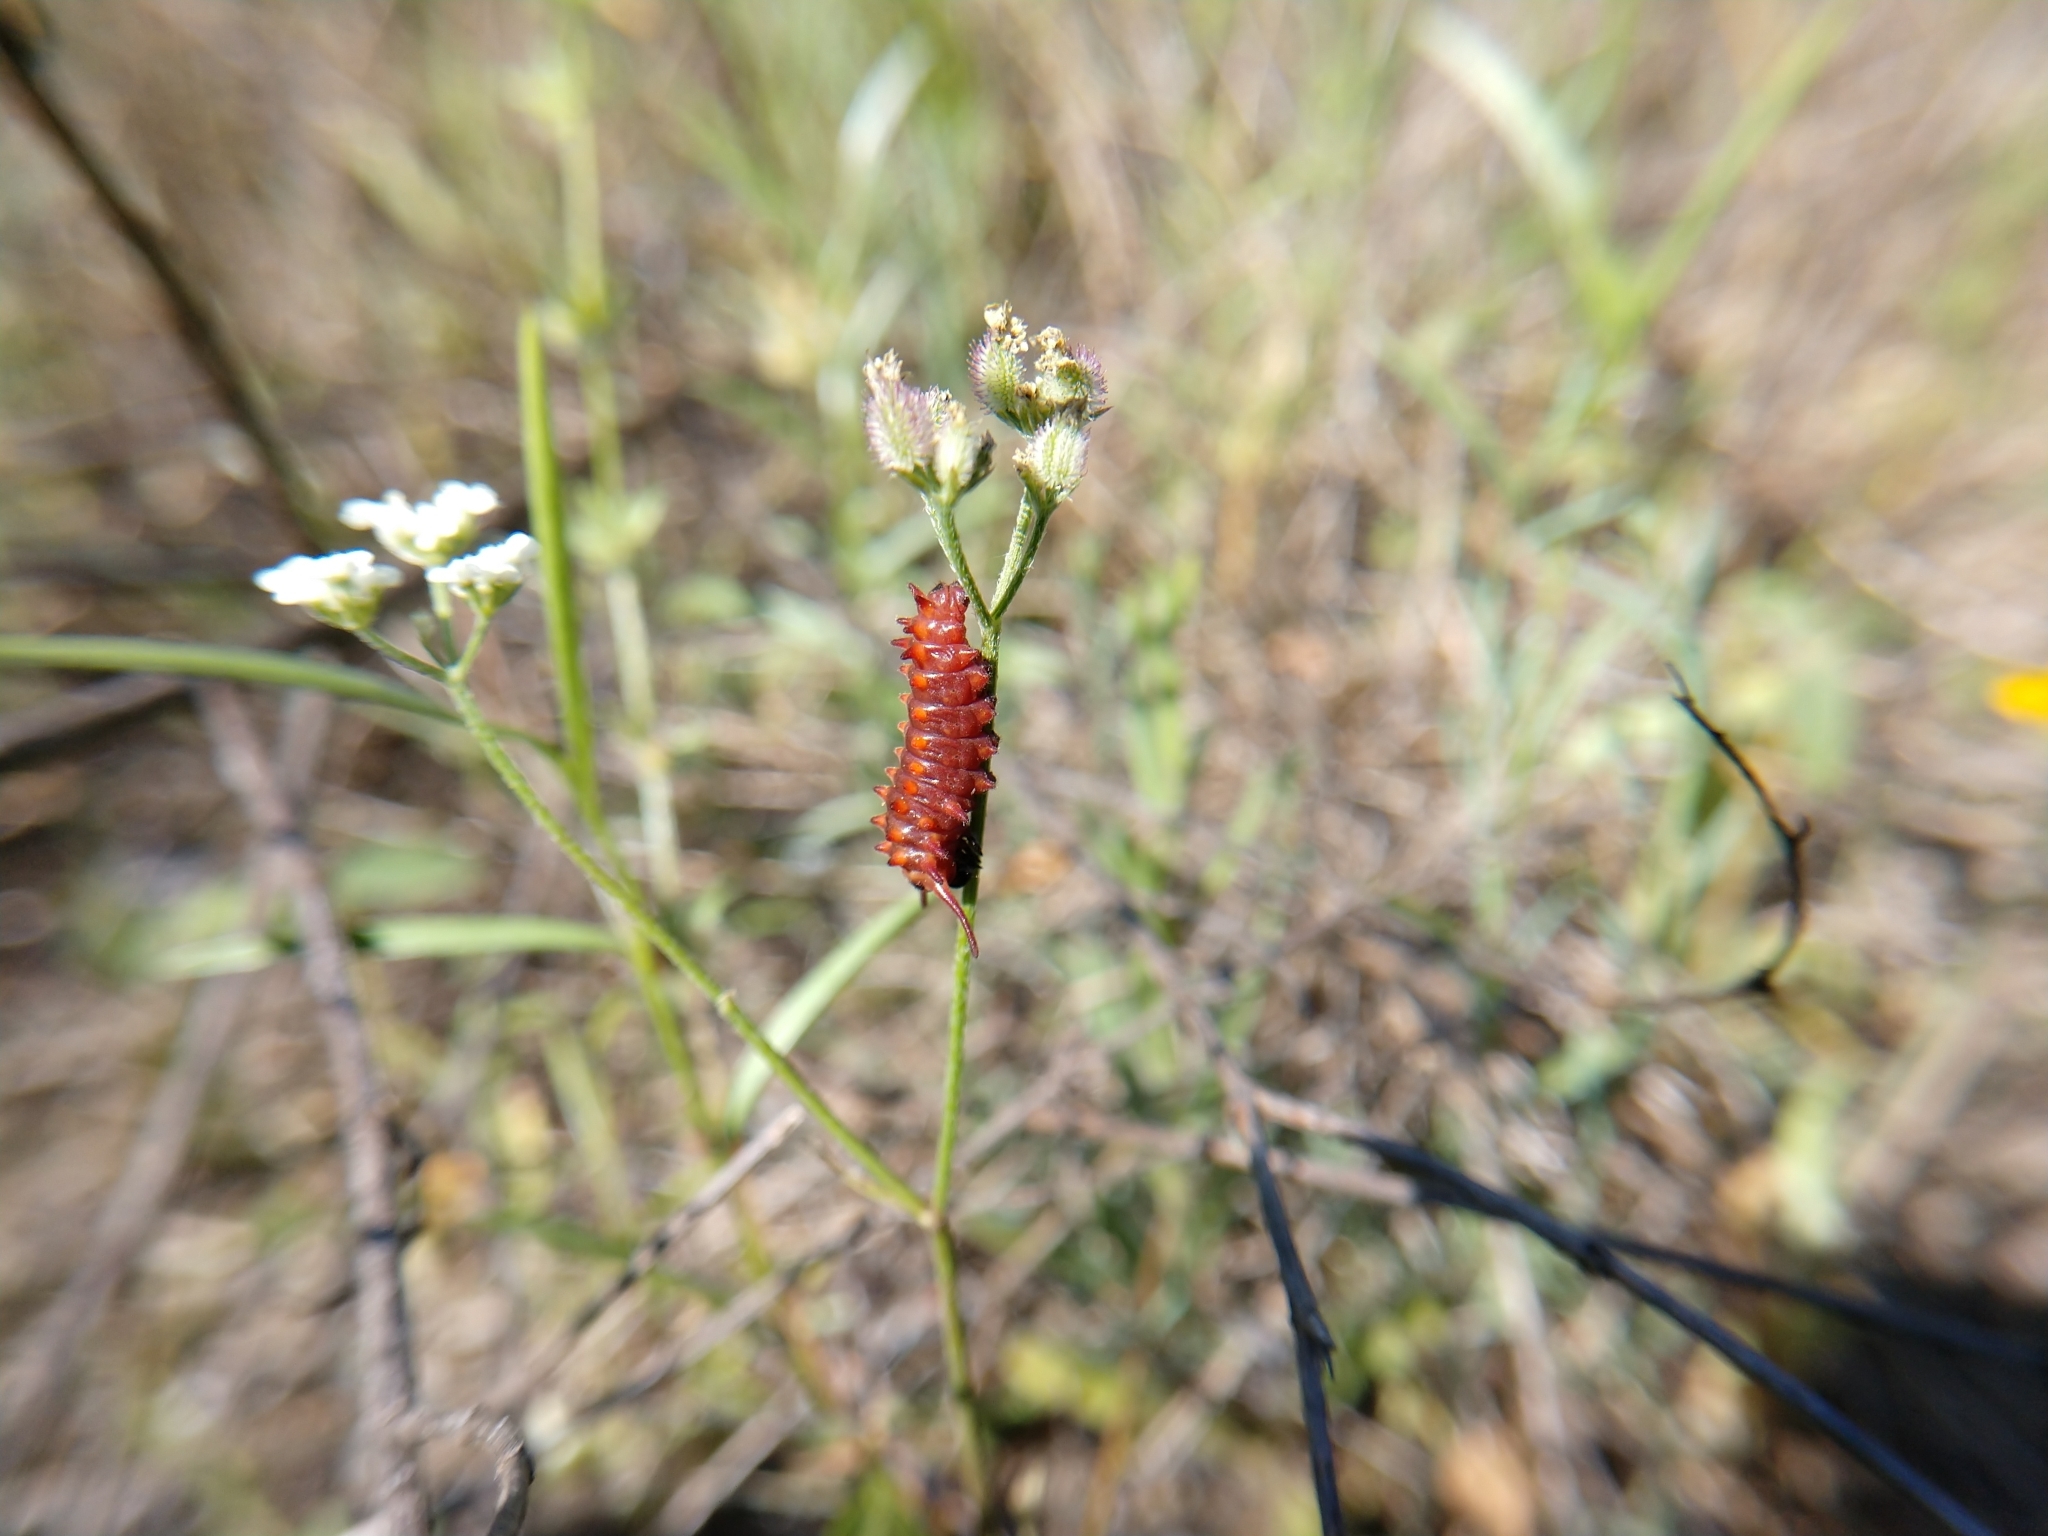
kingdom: Animalia
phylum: Arthropoda
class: Insecta
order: Lepidoptera
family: Papilionidae
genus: Battus
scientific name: Battus philenor
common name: Pipevine swallowtail
